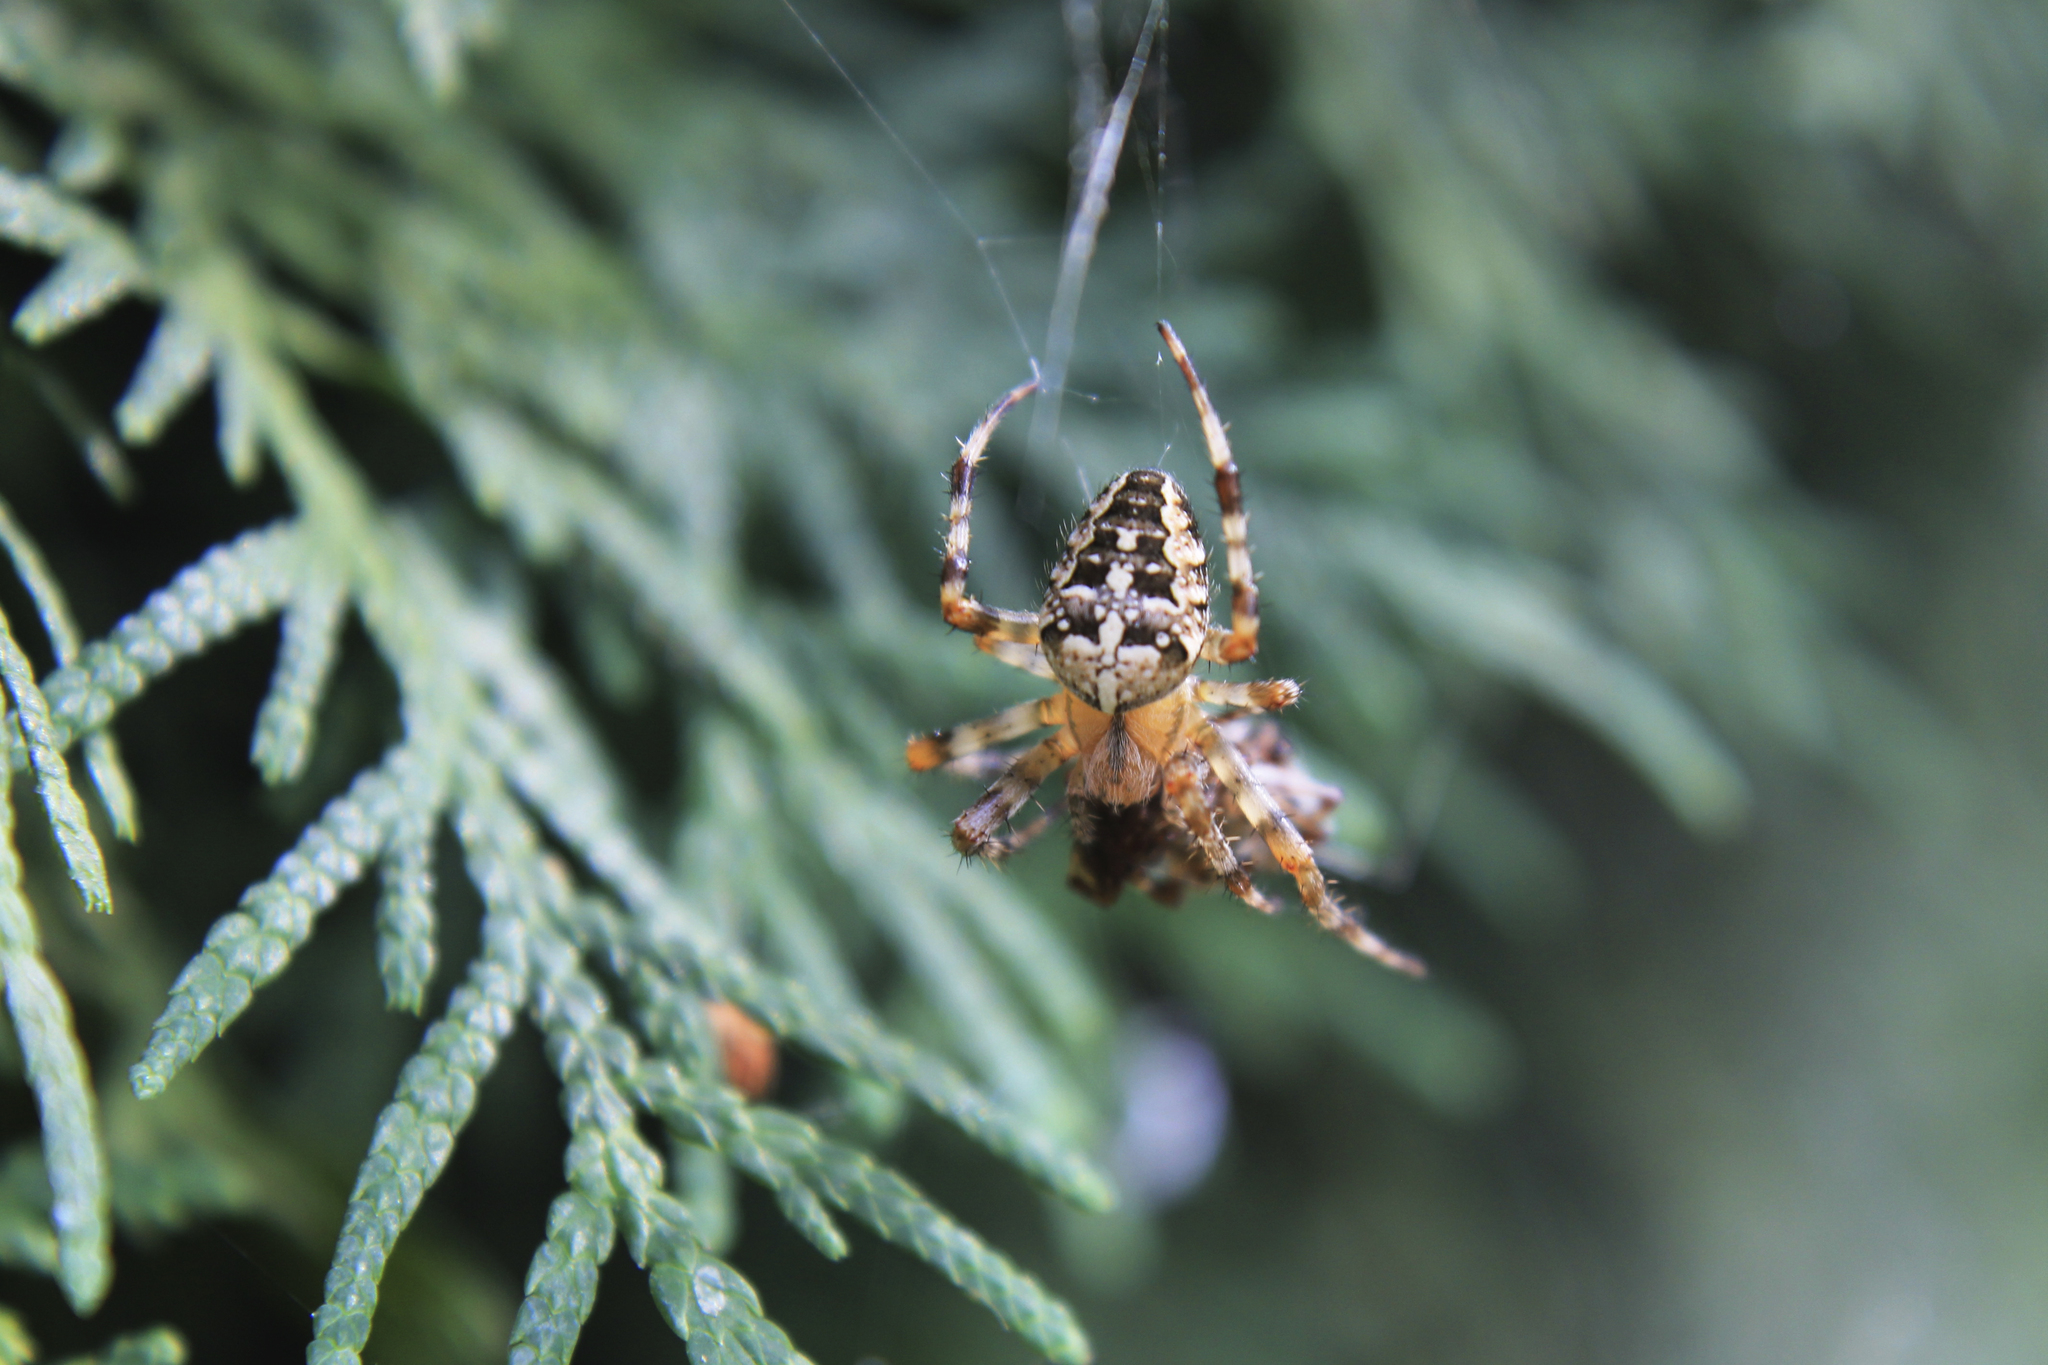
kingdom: Animalia
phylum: Arthropoda
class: Arachnida
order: Araneae
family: Araneidae
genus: Araneus
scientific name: Araneus diadematus
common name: Cross orbweaver
